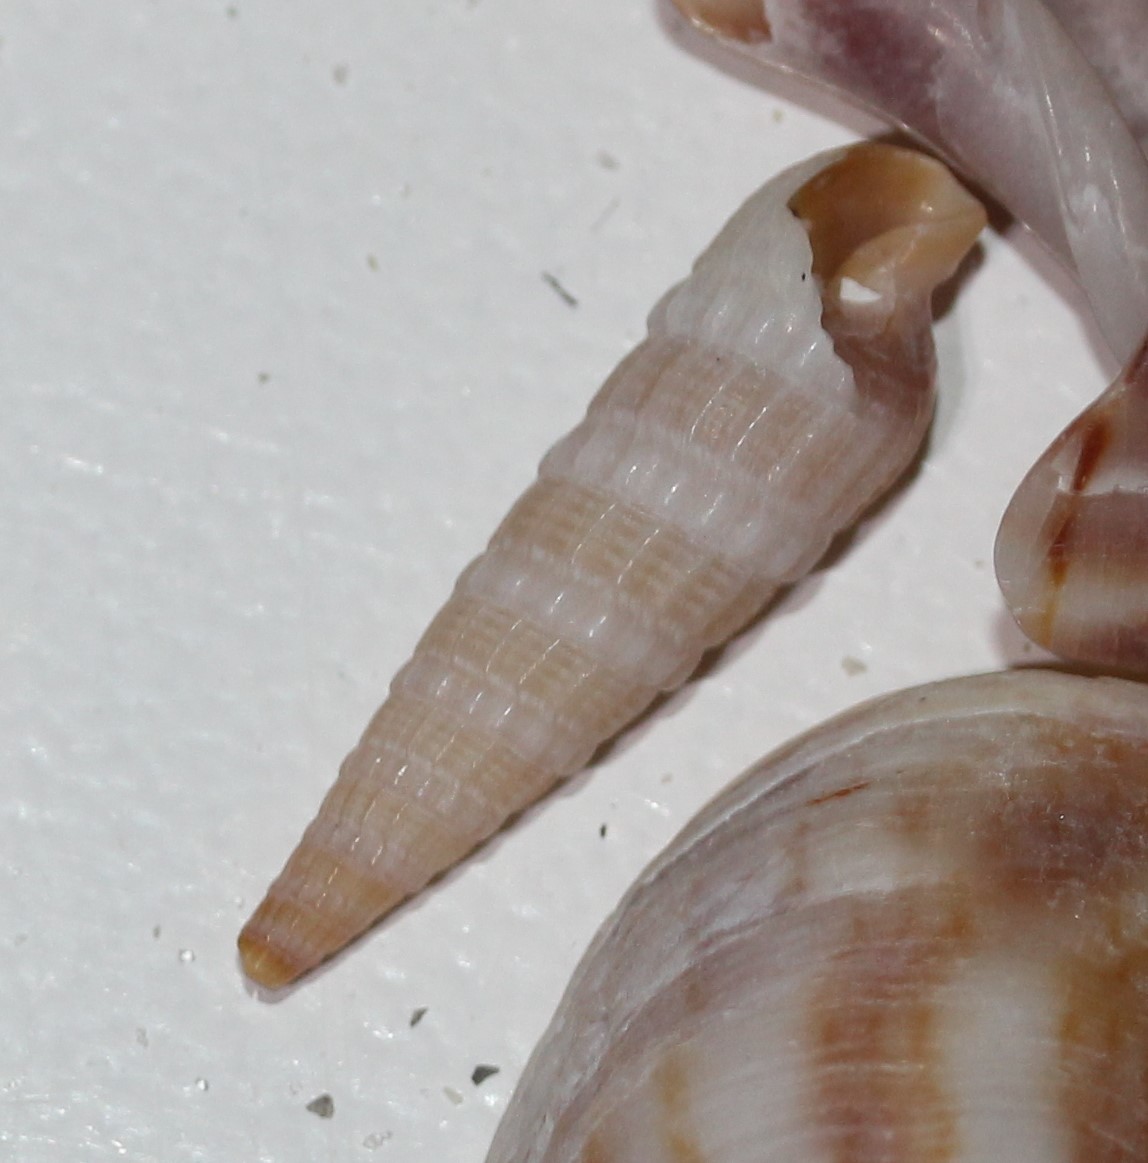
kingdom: Animalia
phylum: Mollusca
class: Gastropoda
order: Neogastropoda
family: Terebridae
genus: Neoterebra
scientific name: Neoterebra dislocata
